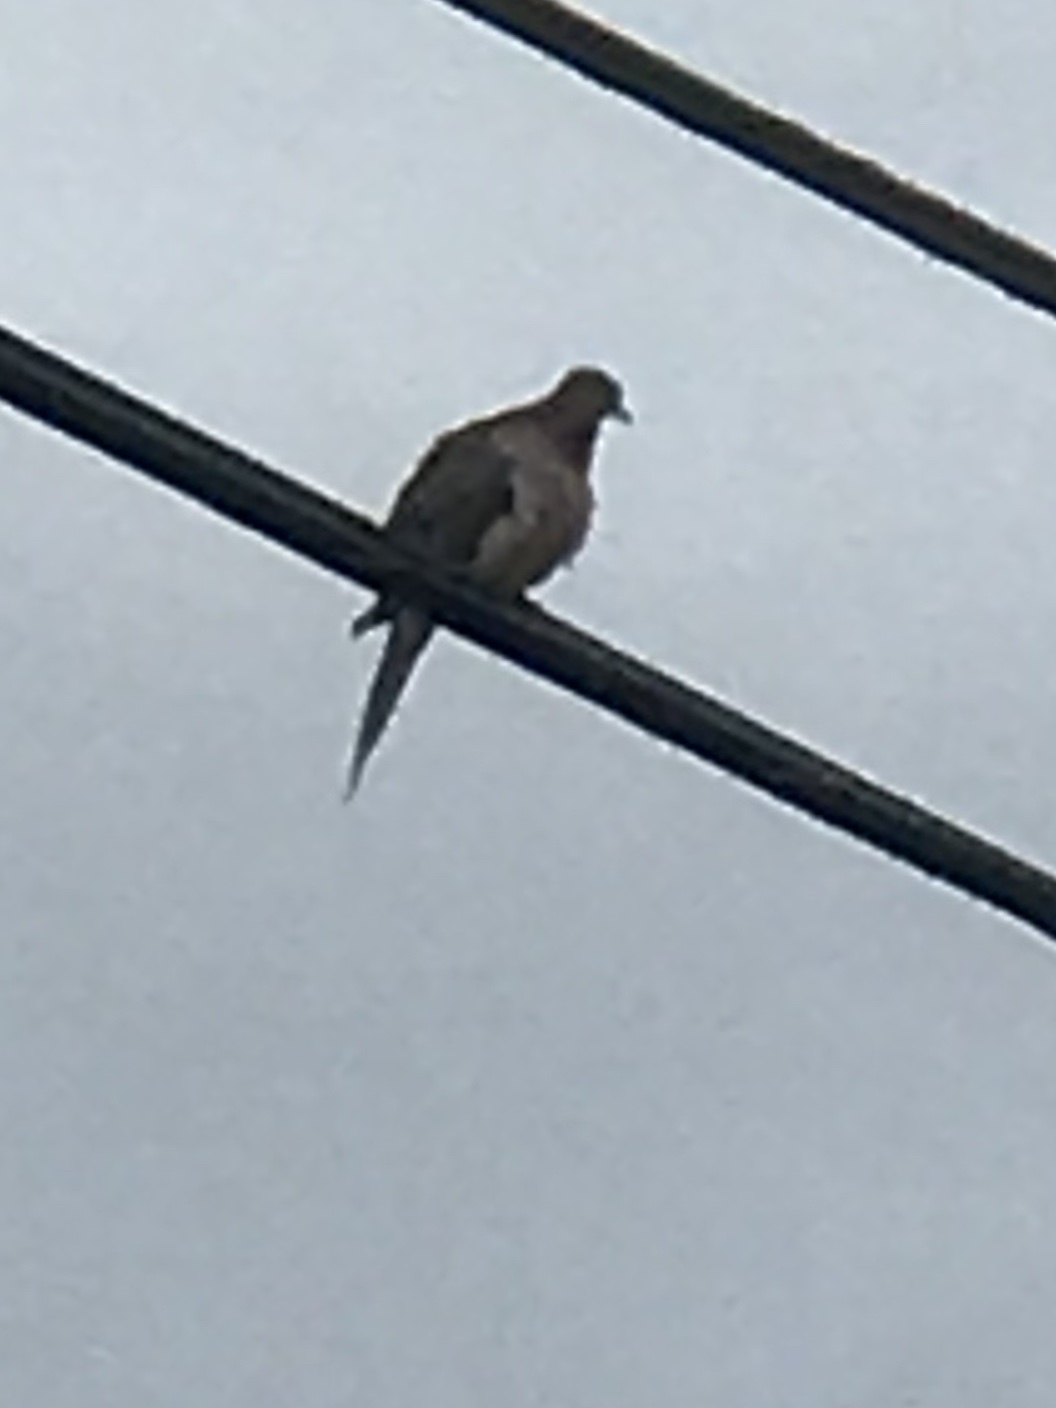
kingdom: Animalia
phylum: Chordata
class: Aves
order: Columbiformes
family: Columbidae
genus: Zenaida
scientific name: Zenaida macroura
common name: Mourning dove
